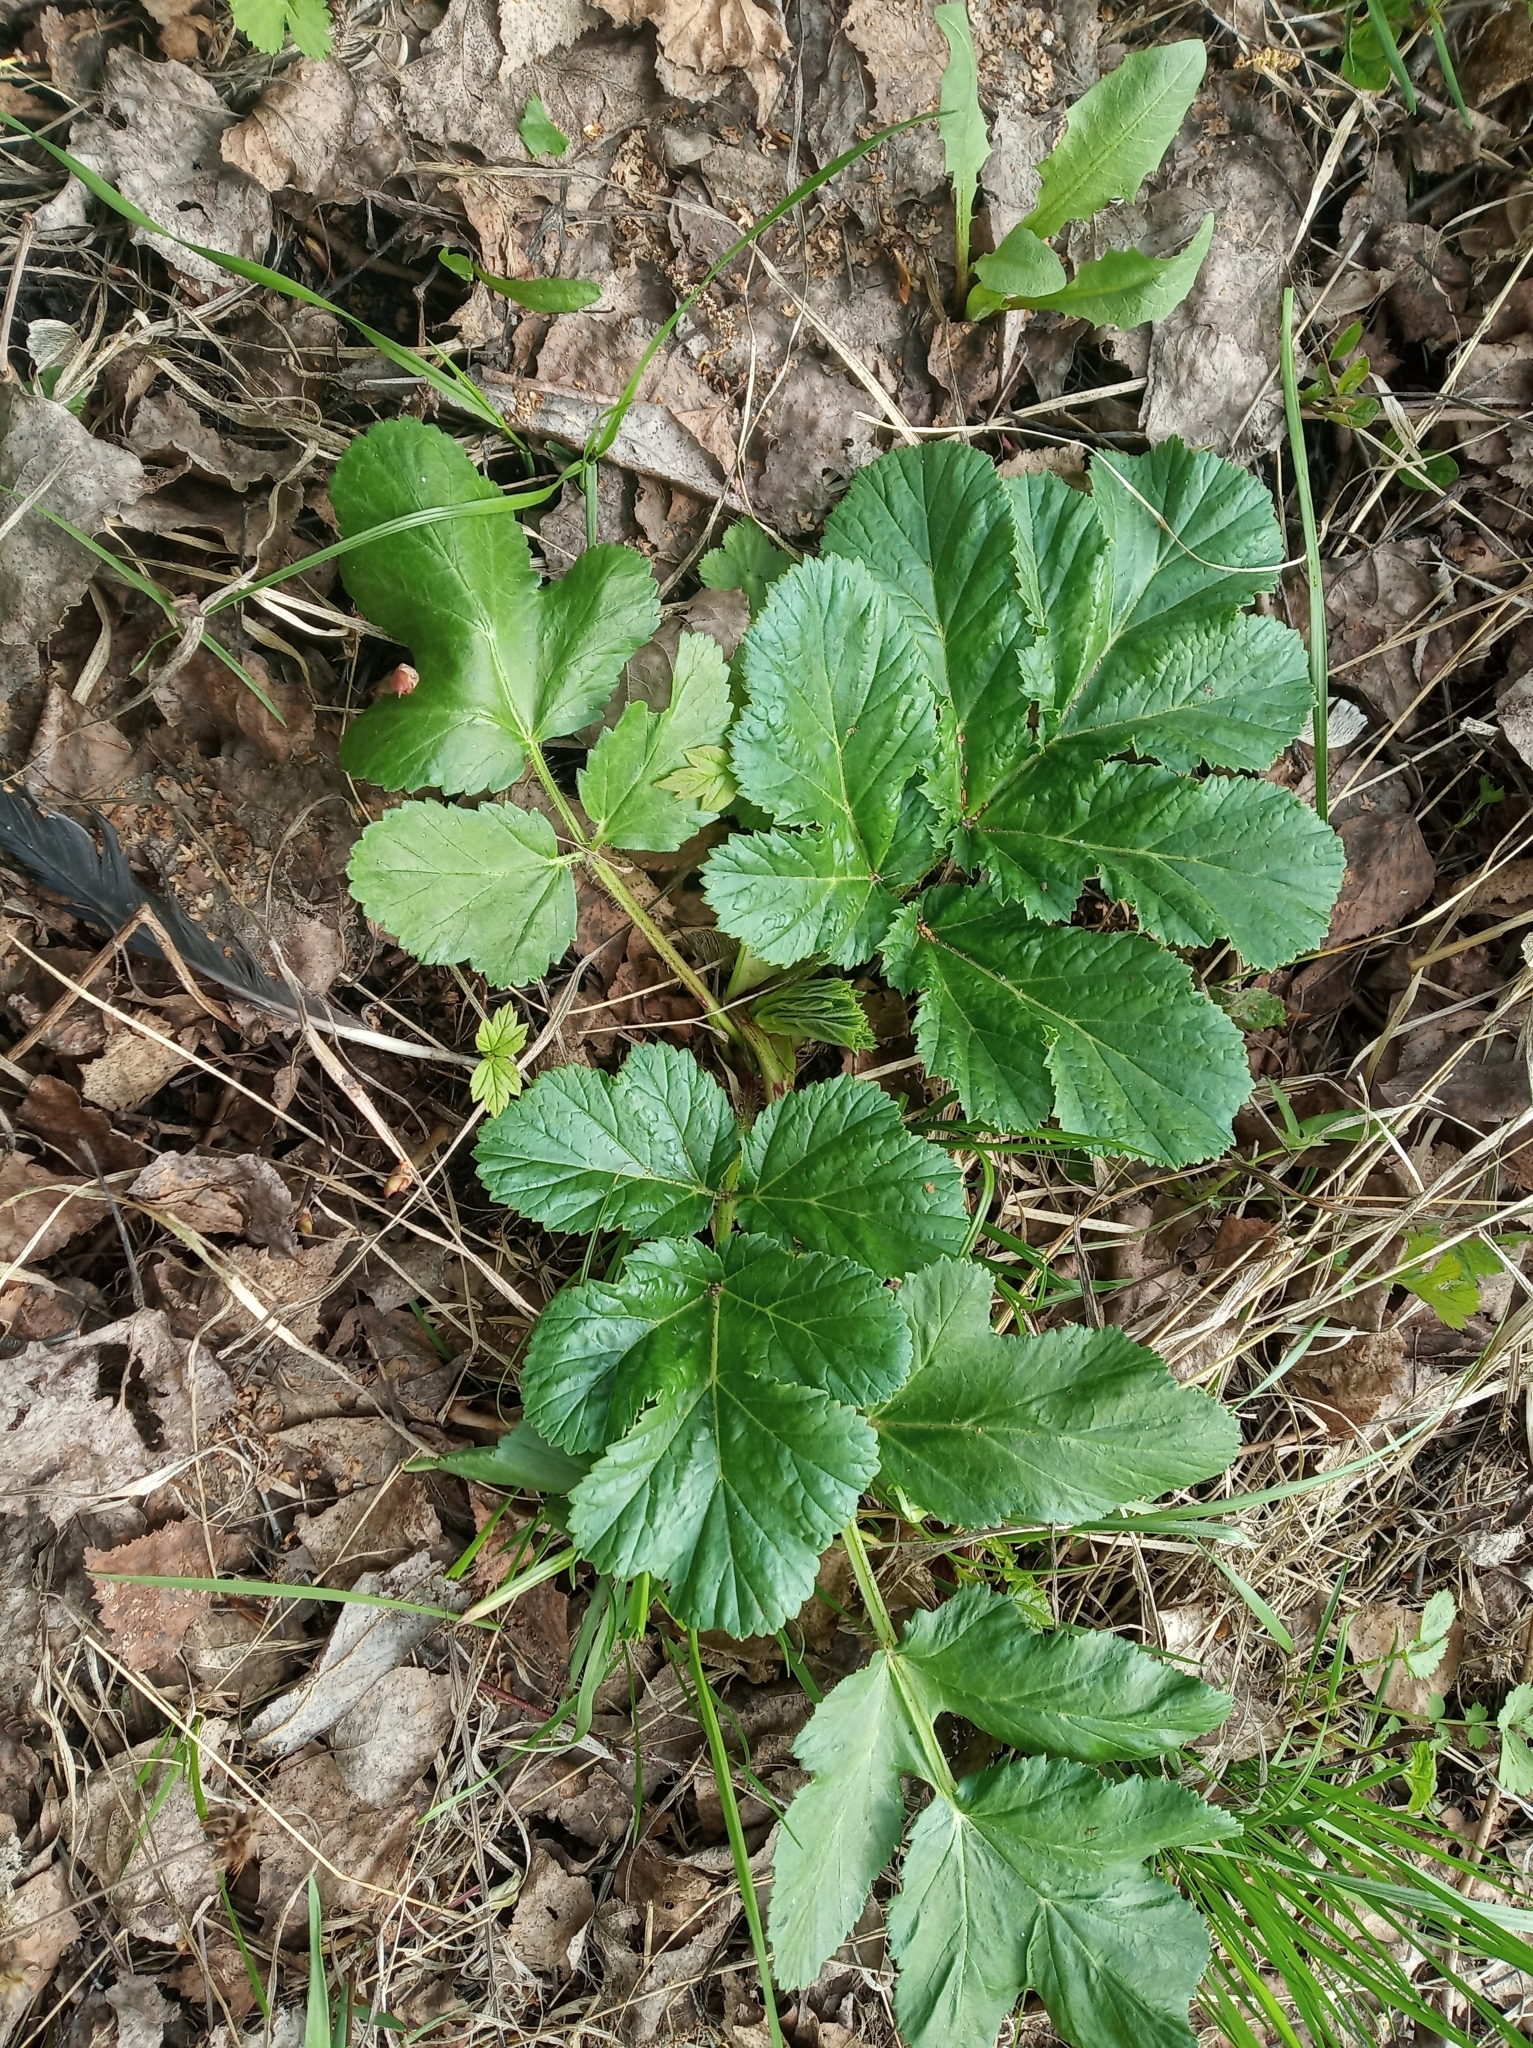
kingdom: Plantae
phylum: Tracheophyta
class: Magnoliopsida
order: Apiales
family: Apiaceae
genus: Heracleum
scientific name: Heracleum sosnowskyi
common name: Sosnowsky's hogweed
